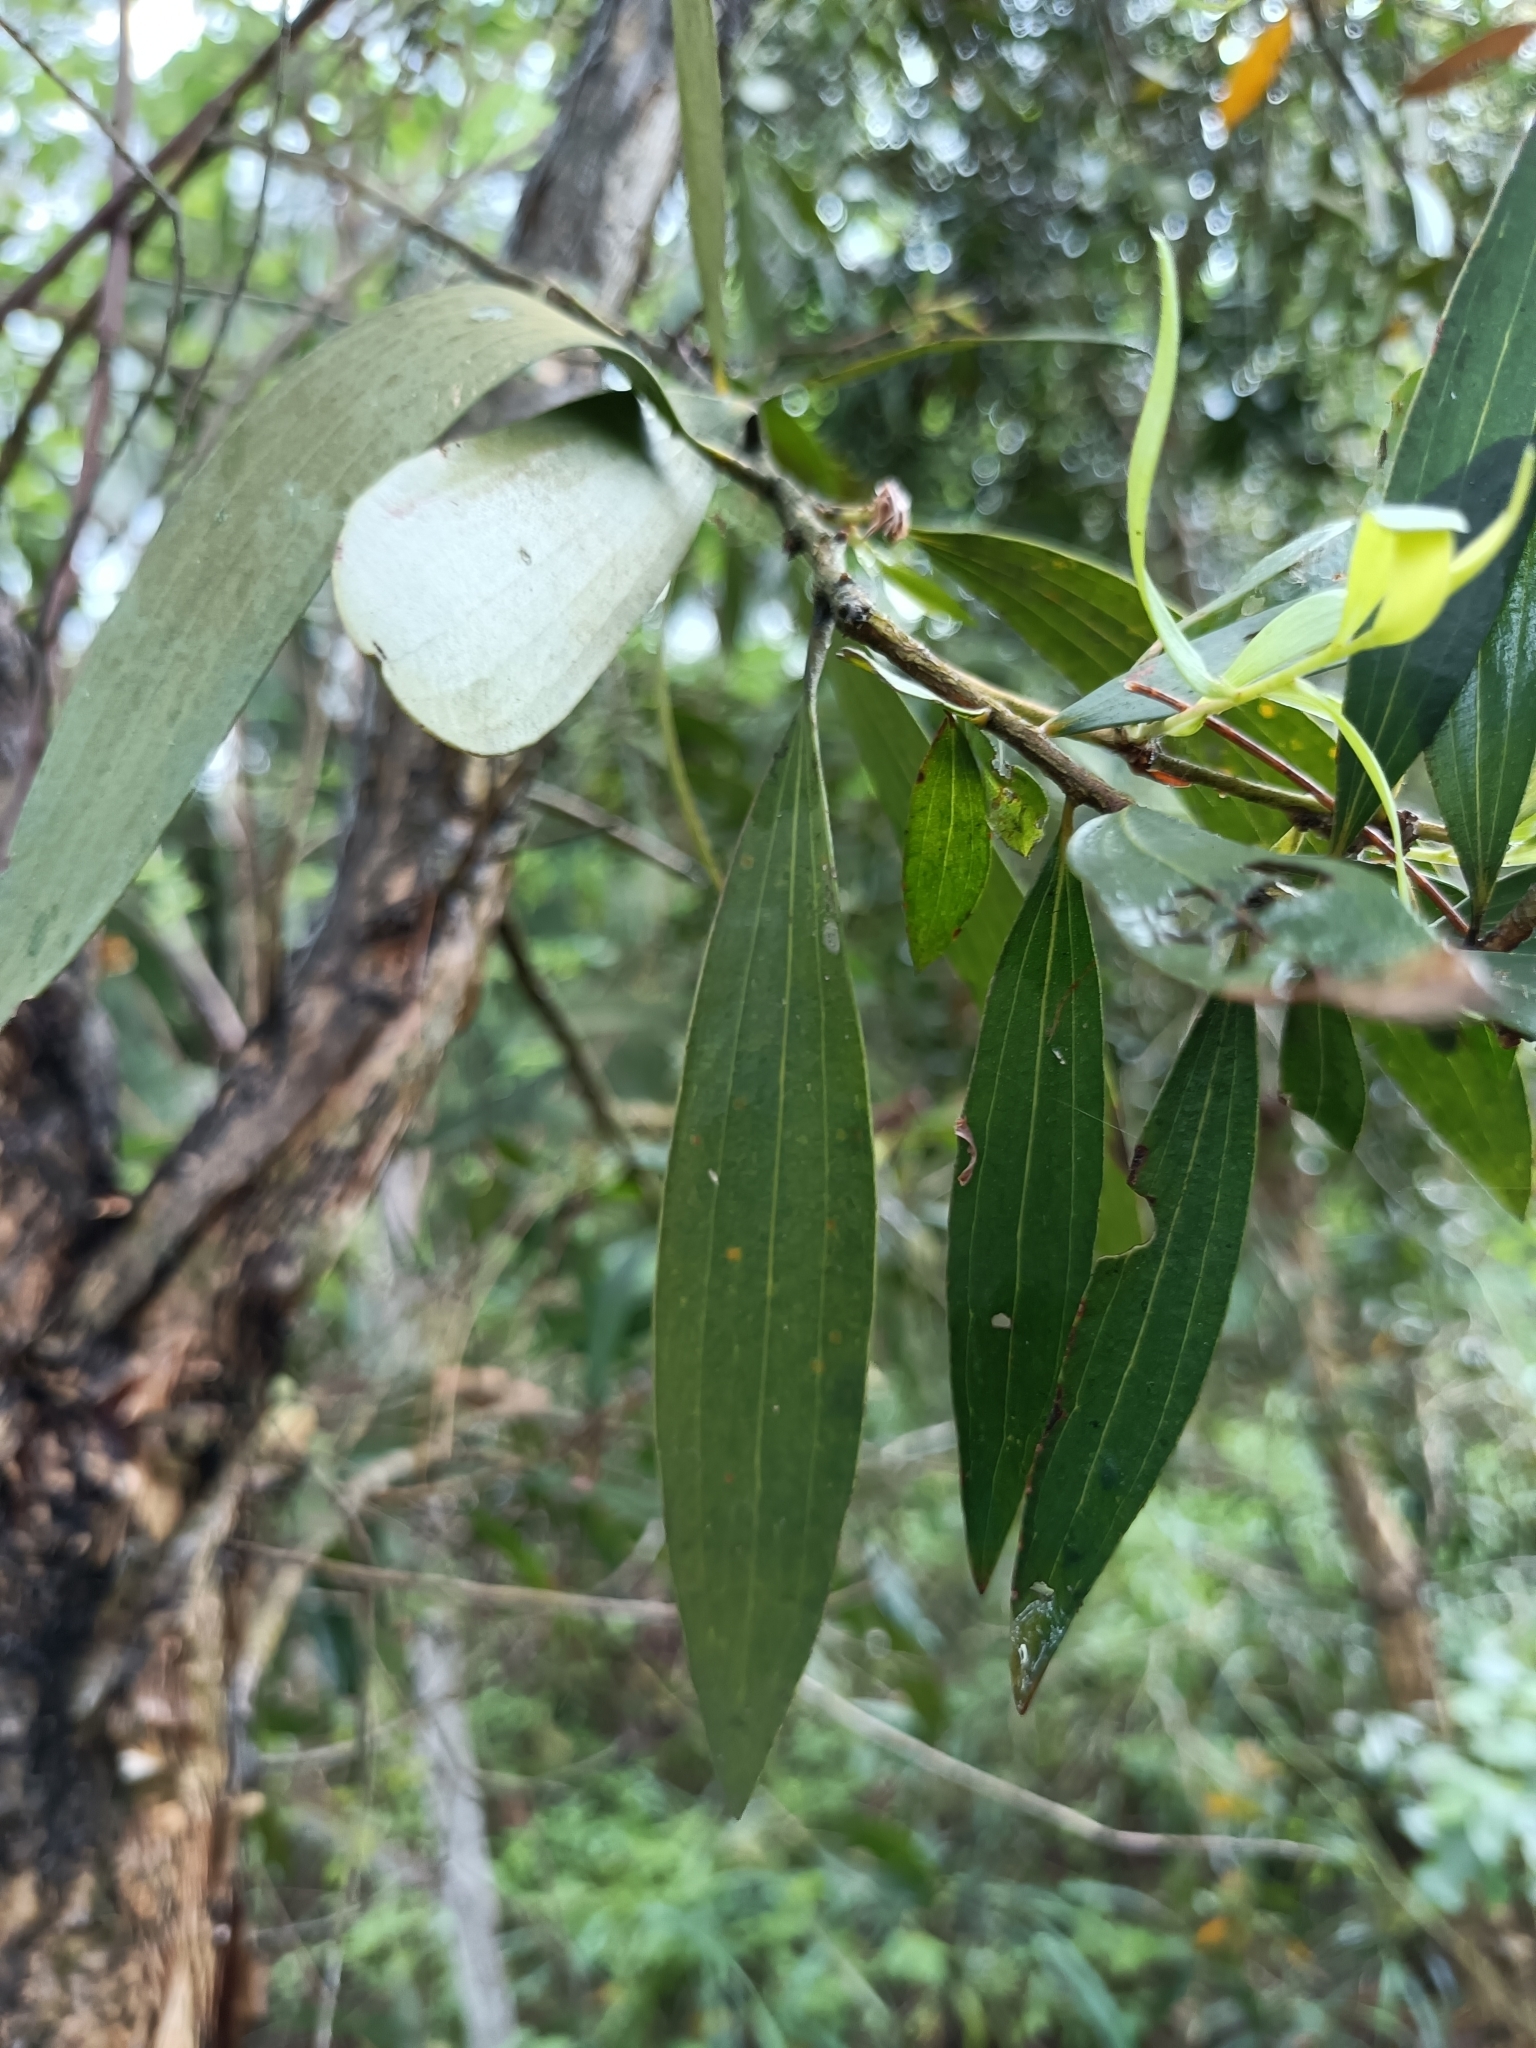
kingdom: Plantae
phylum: Tracheophyta
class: Magnoliopsida
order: Fabales
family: Fabaceae
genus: Acacia
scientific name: Acacia confusa
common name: Formosan koa
